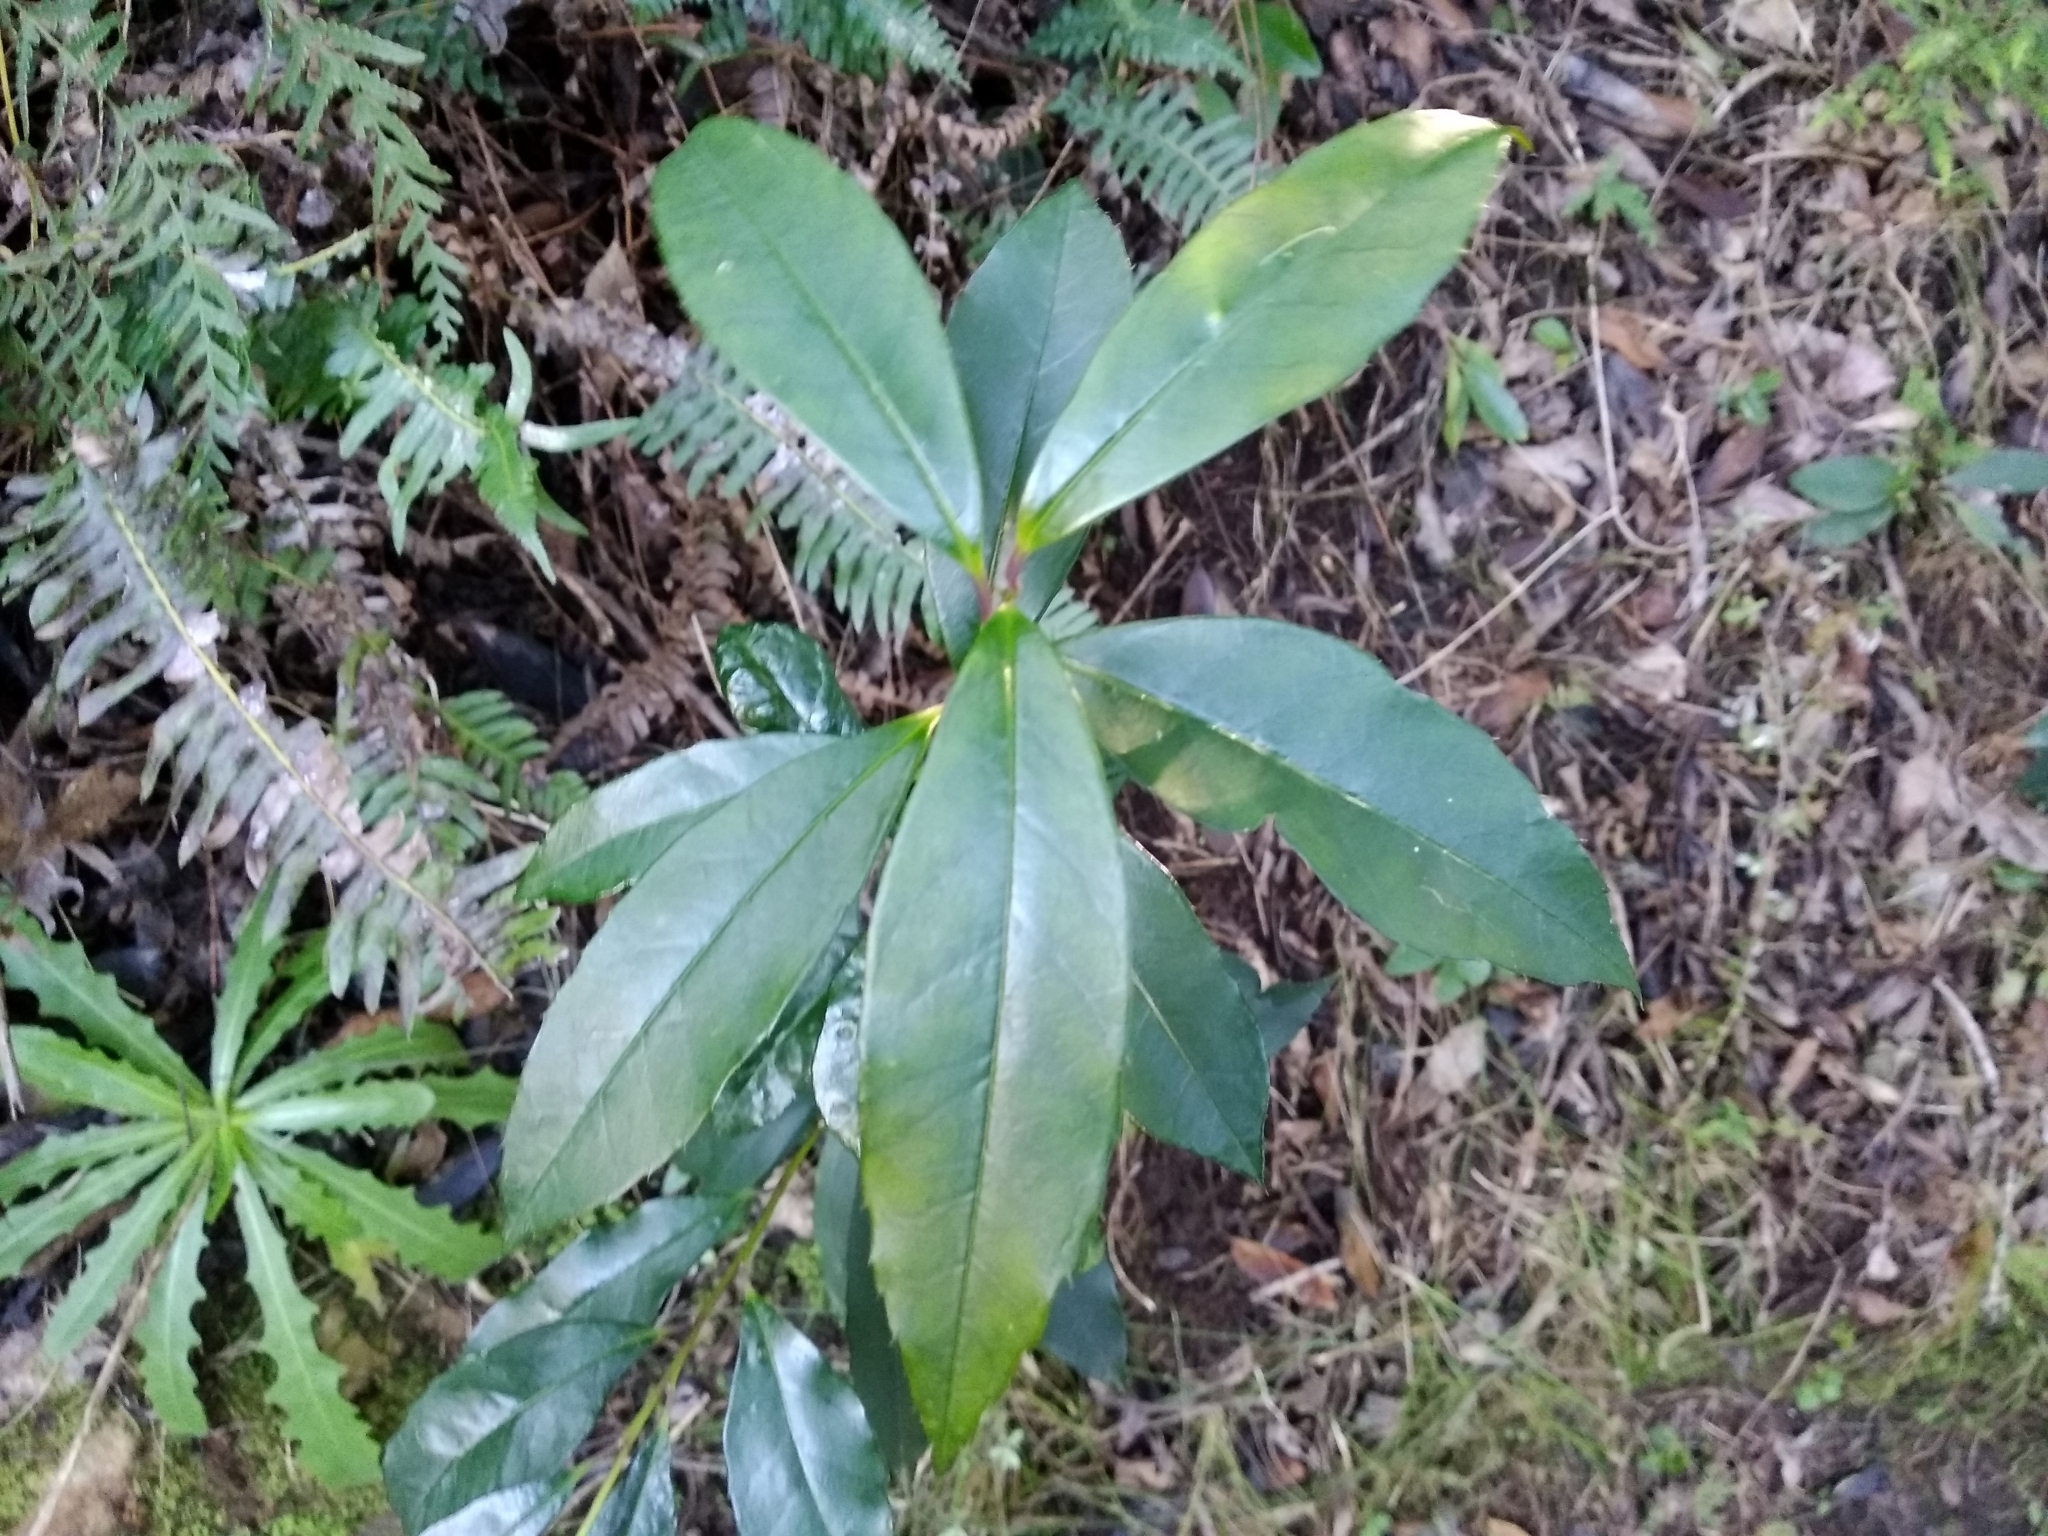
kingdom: Plantae
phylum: Tracheophyta
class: Magnoliopsida
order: Aquifoliales
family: Aquifoliaceae
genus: Ilex
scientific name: Ilex mitis
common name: African holly
